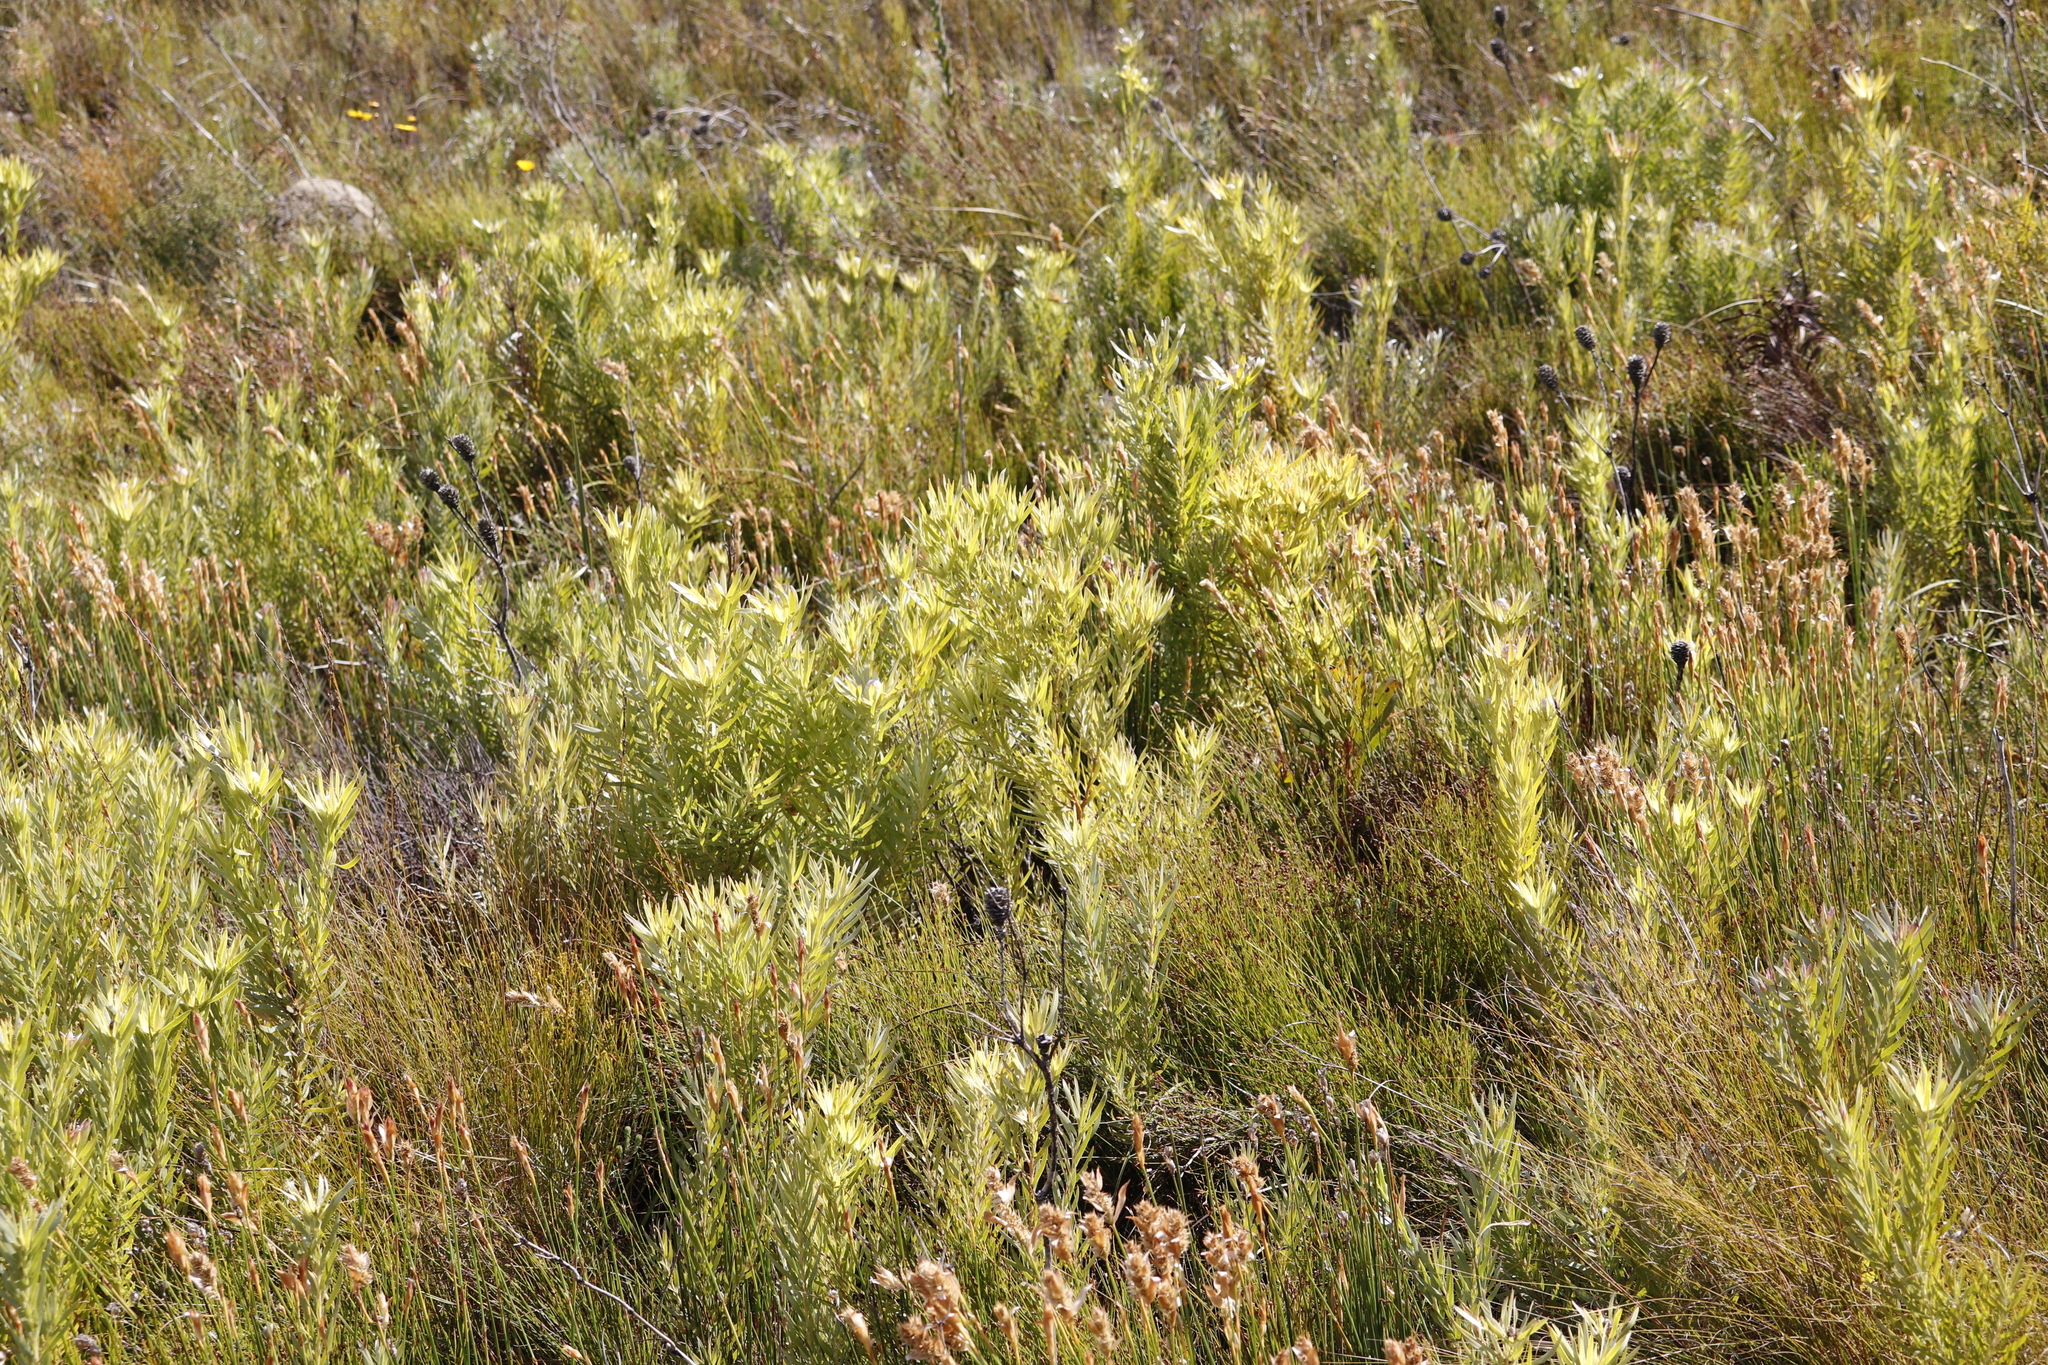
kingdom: Plantae
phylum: Tracheophyta
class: Magnoliopsida
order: Proteales
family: Proteaceae
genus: Leucadendron
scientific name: Leucadendron xanthoconus
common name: Sickle-leaf conebush
